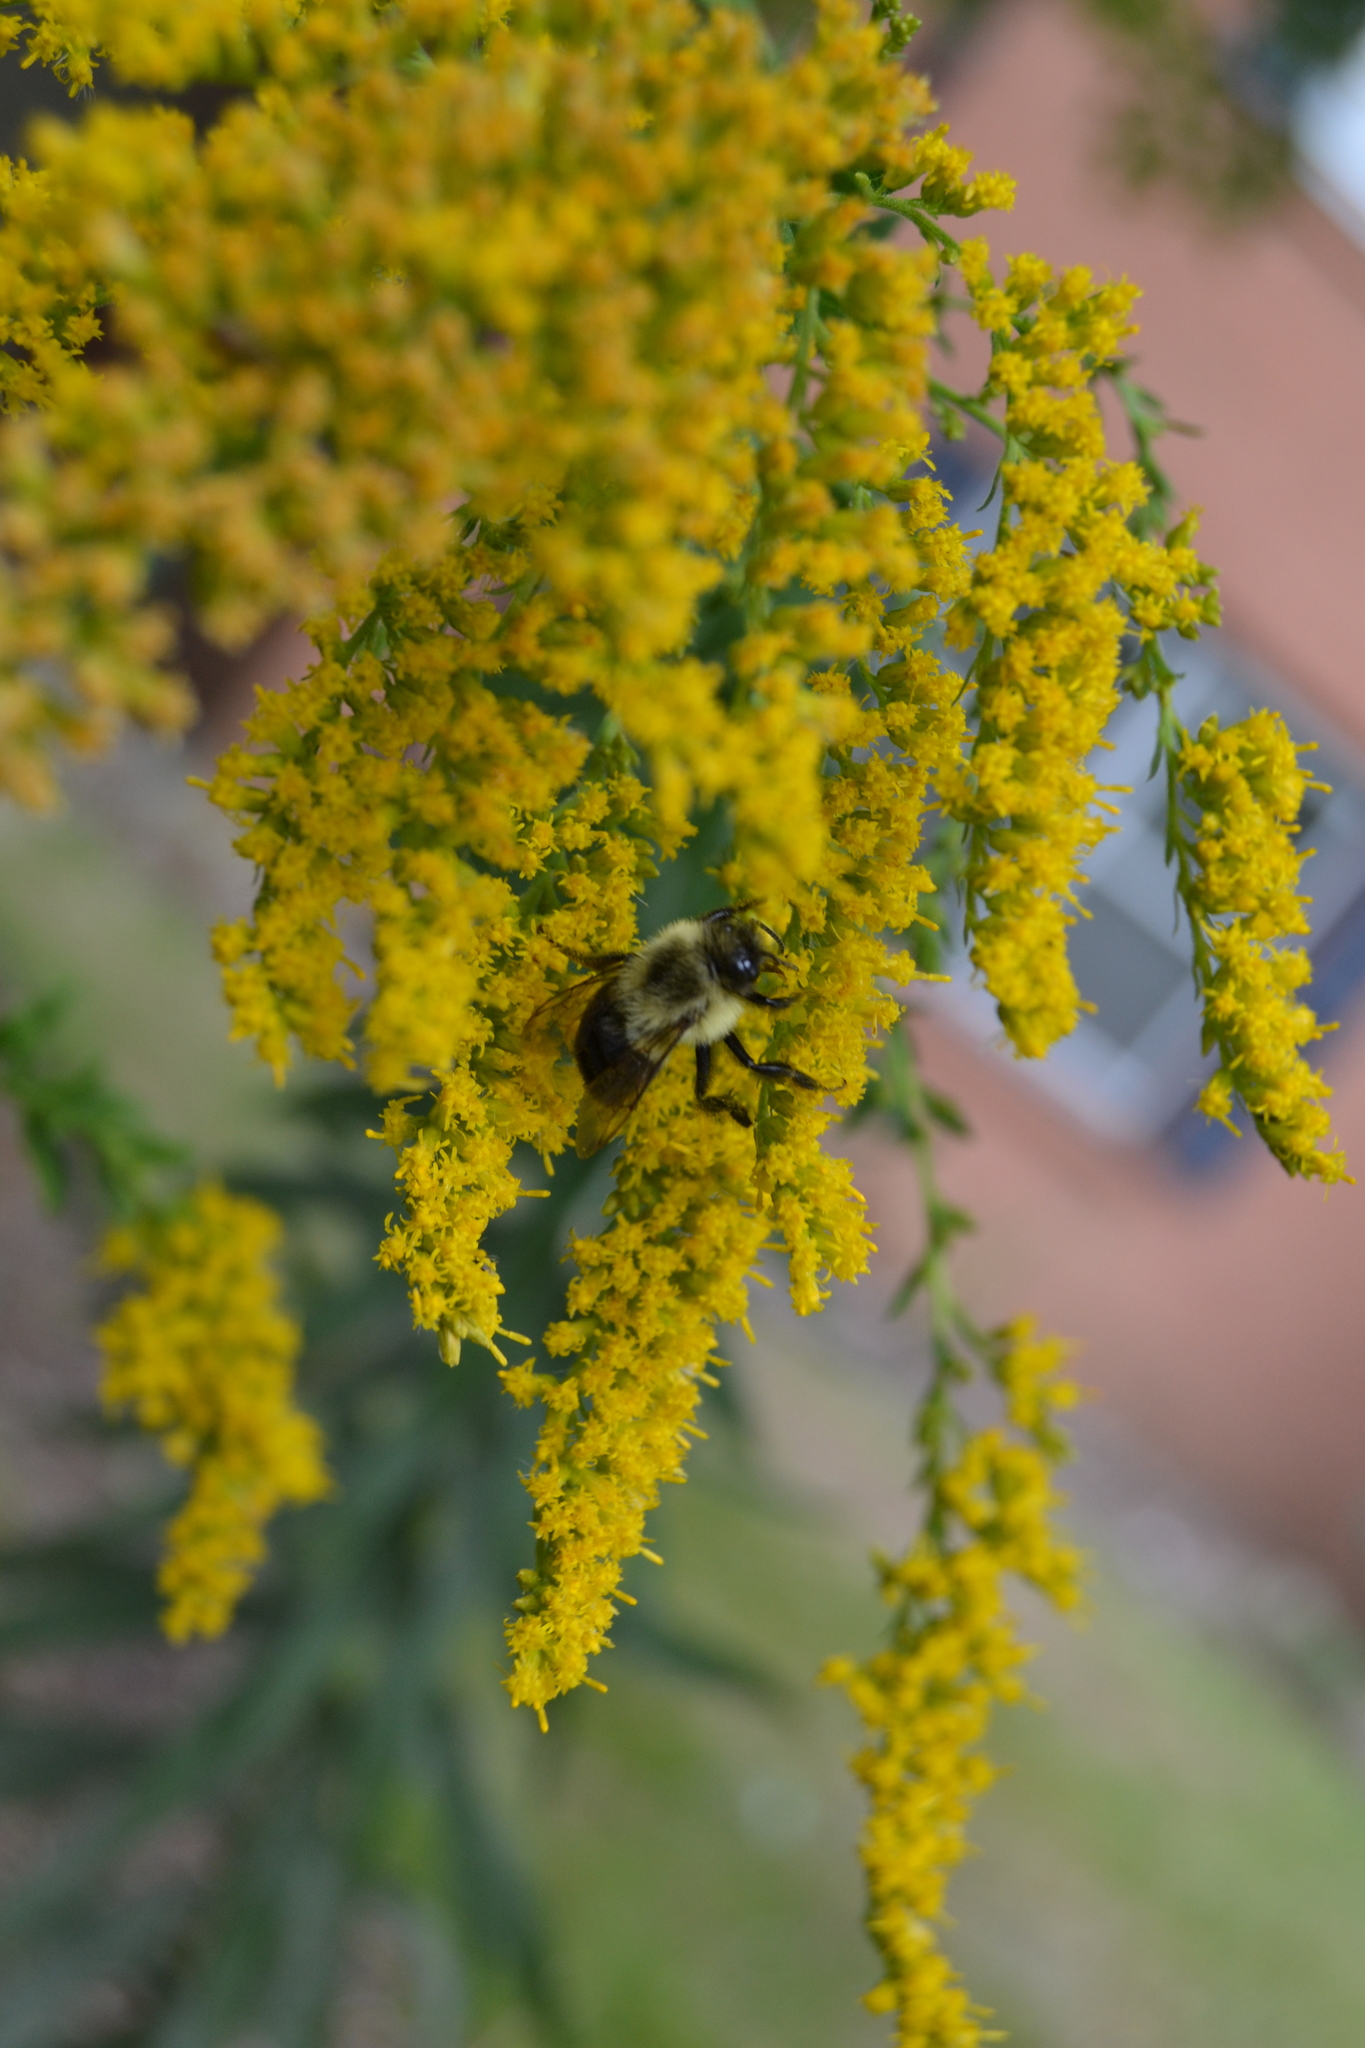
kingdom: Animalia
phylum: Arthropoda
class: Insecta
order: Hymenoptera
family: Apidae
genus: Bombus
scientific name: Bombus impatiens
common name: Common eastern bumble bee
